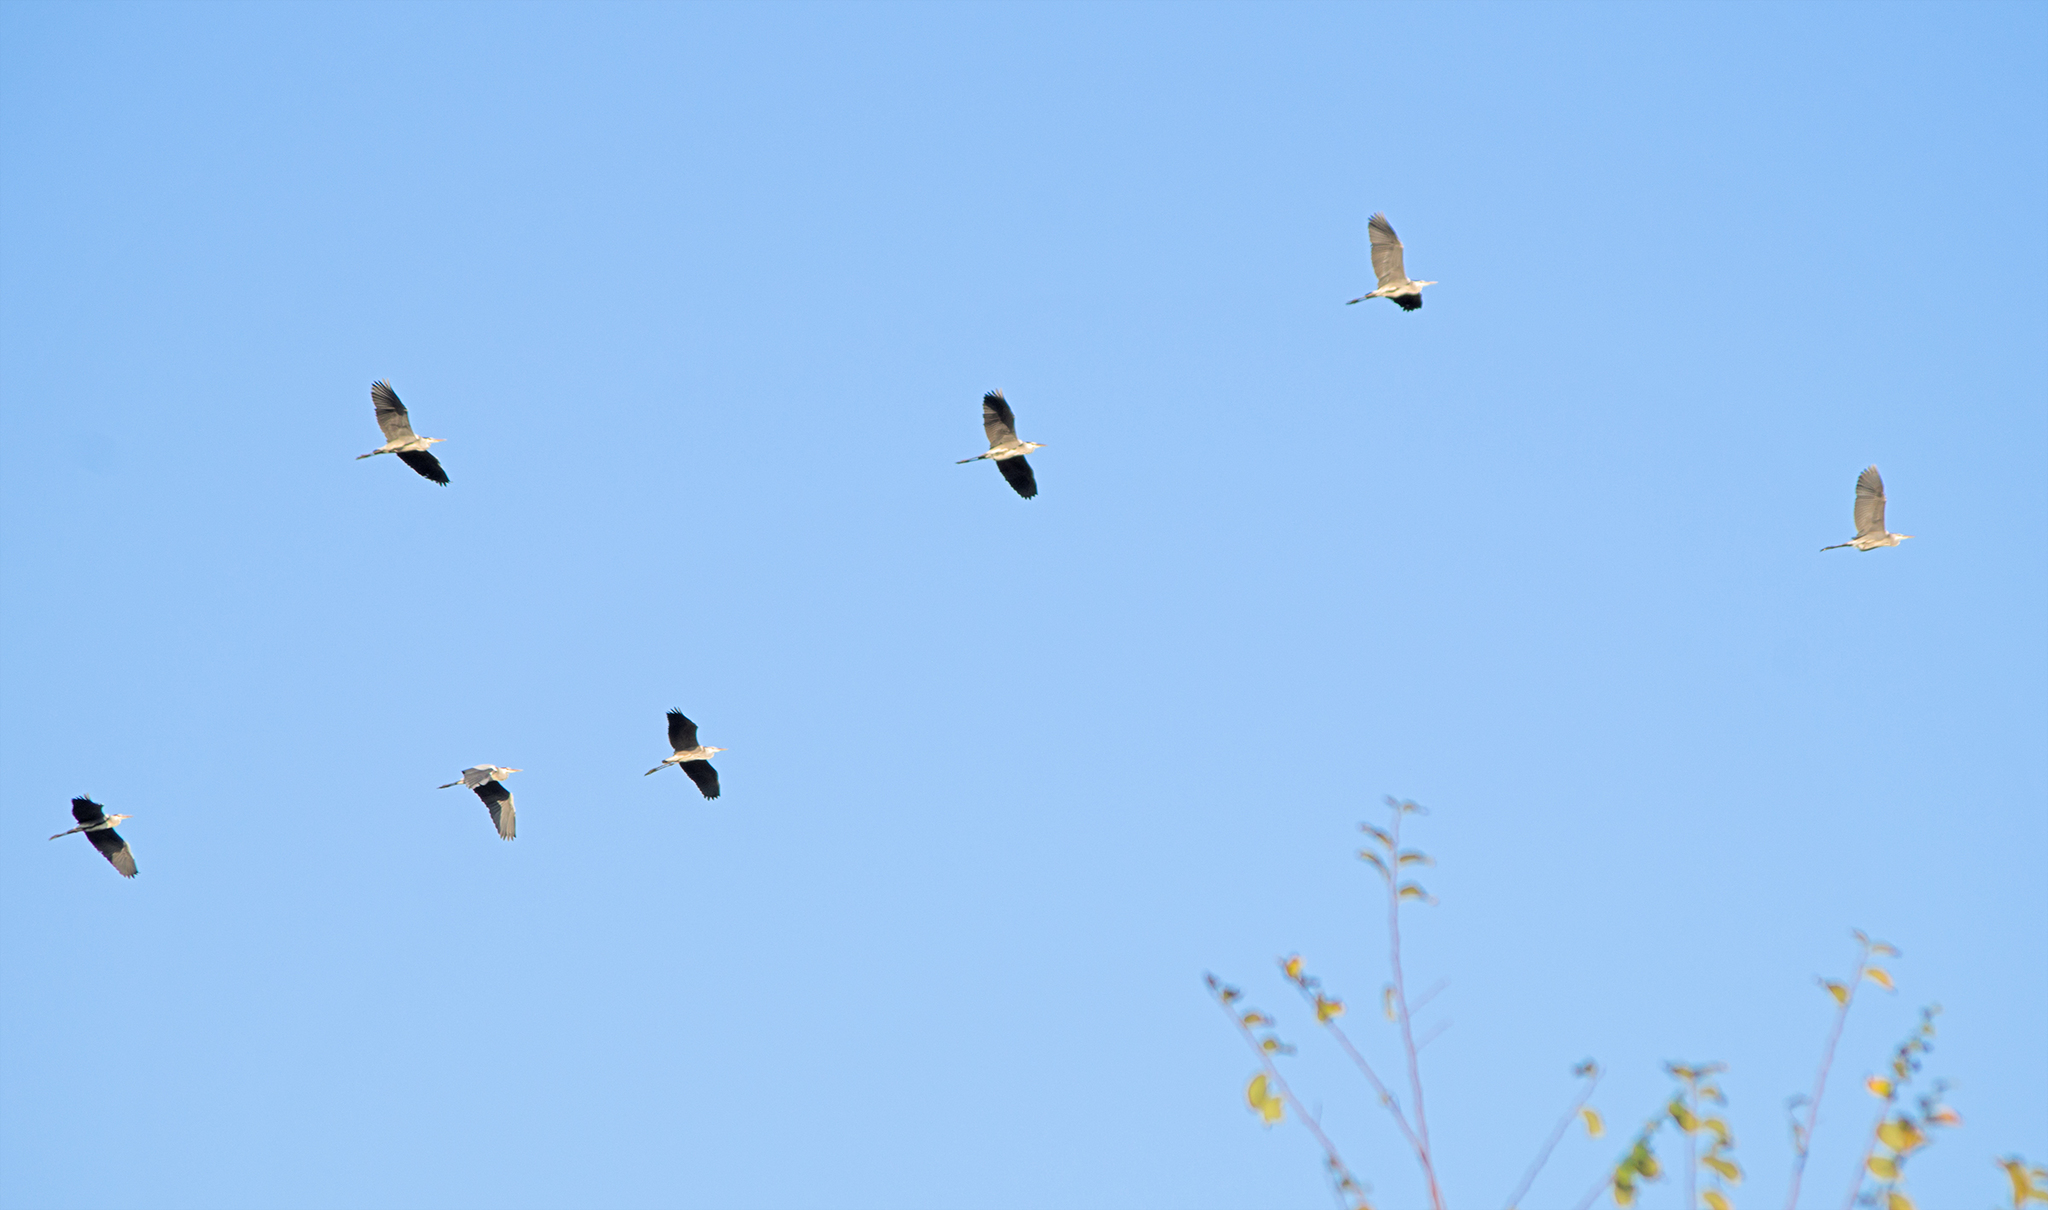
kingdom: Animalia
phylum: Chordata
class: Aves
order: Pelecaniformes
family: Ardeidae
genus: Ardea
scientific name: Ardea cinerea
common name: Grey heron
